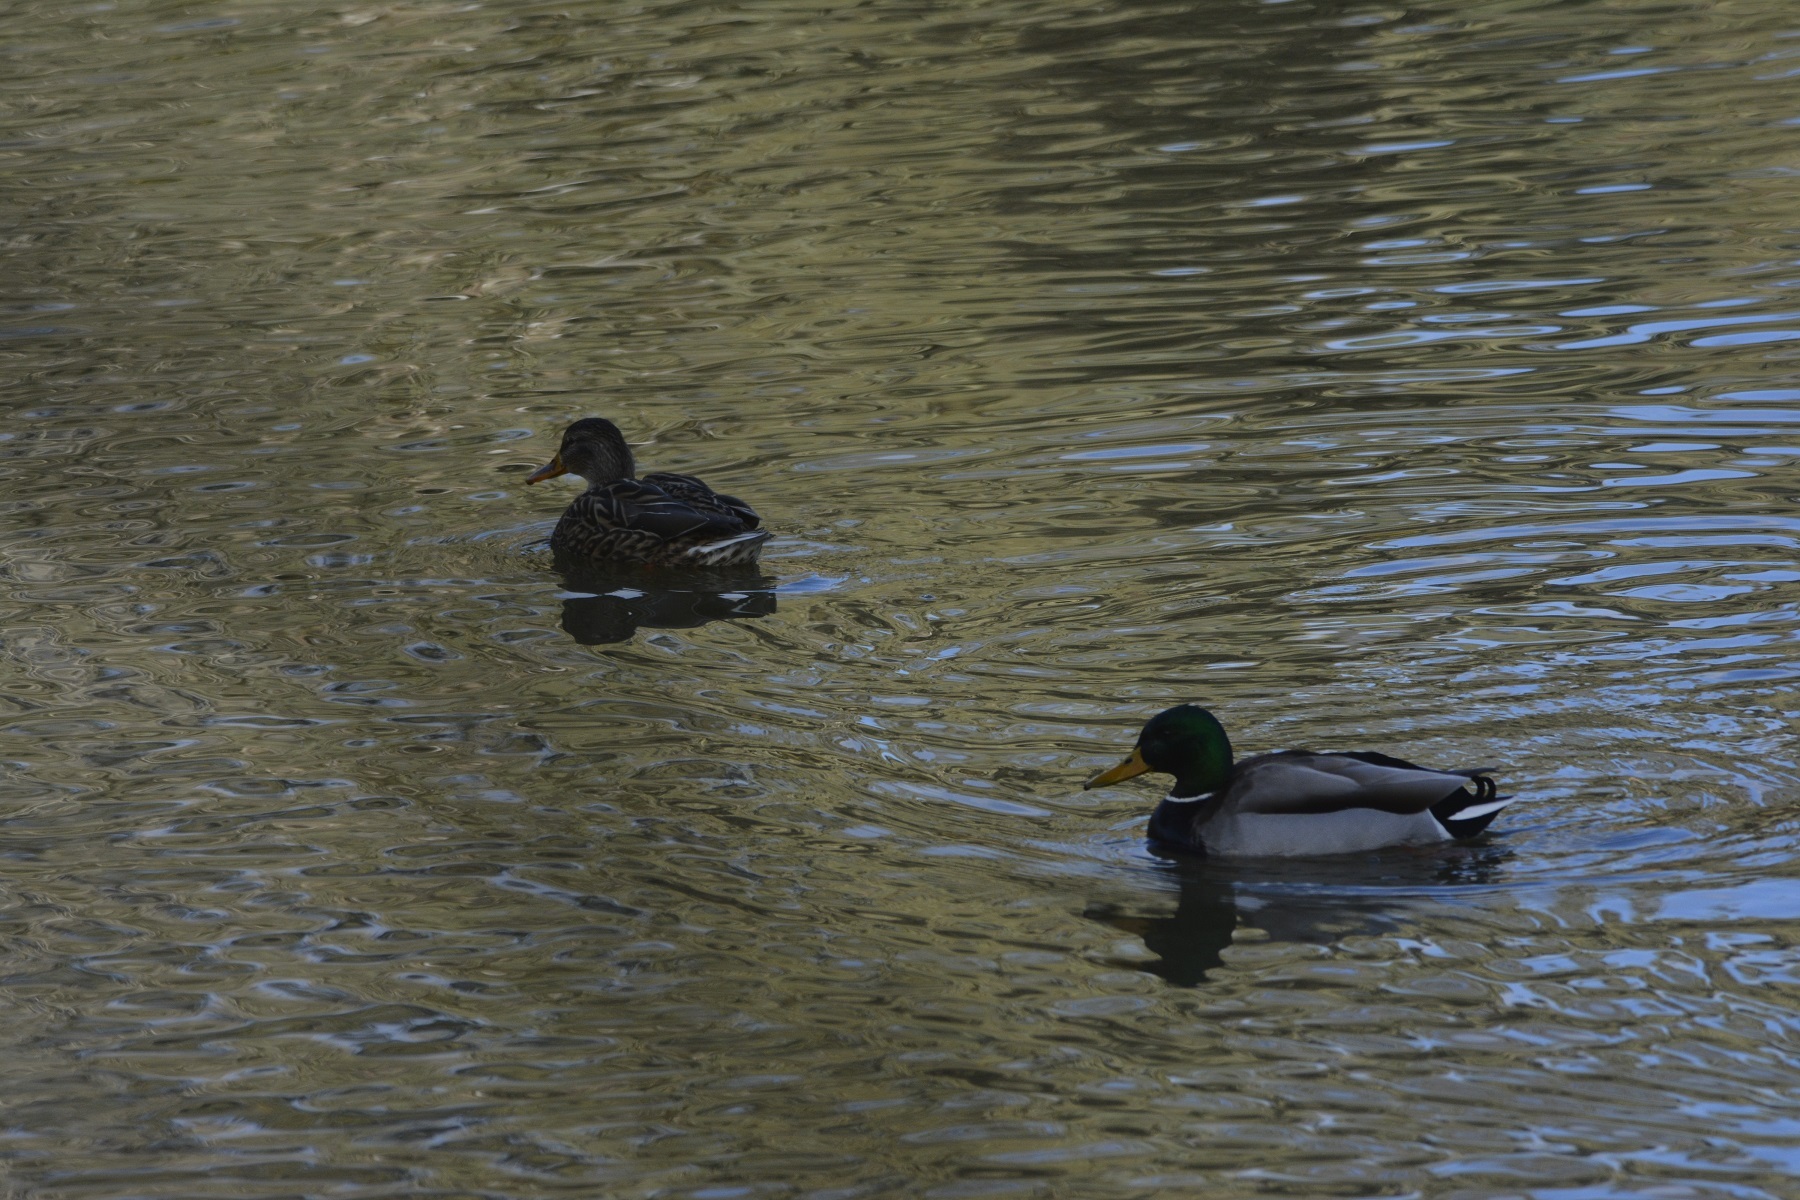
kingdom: Animalia
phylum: Chordata
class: Aves
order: Anseriformes
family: Anatidae
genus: Anas
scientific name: Anas platyrhynchos
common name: Mallard
